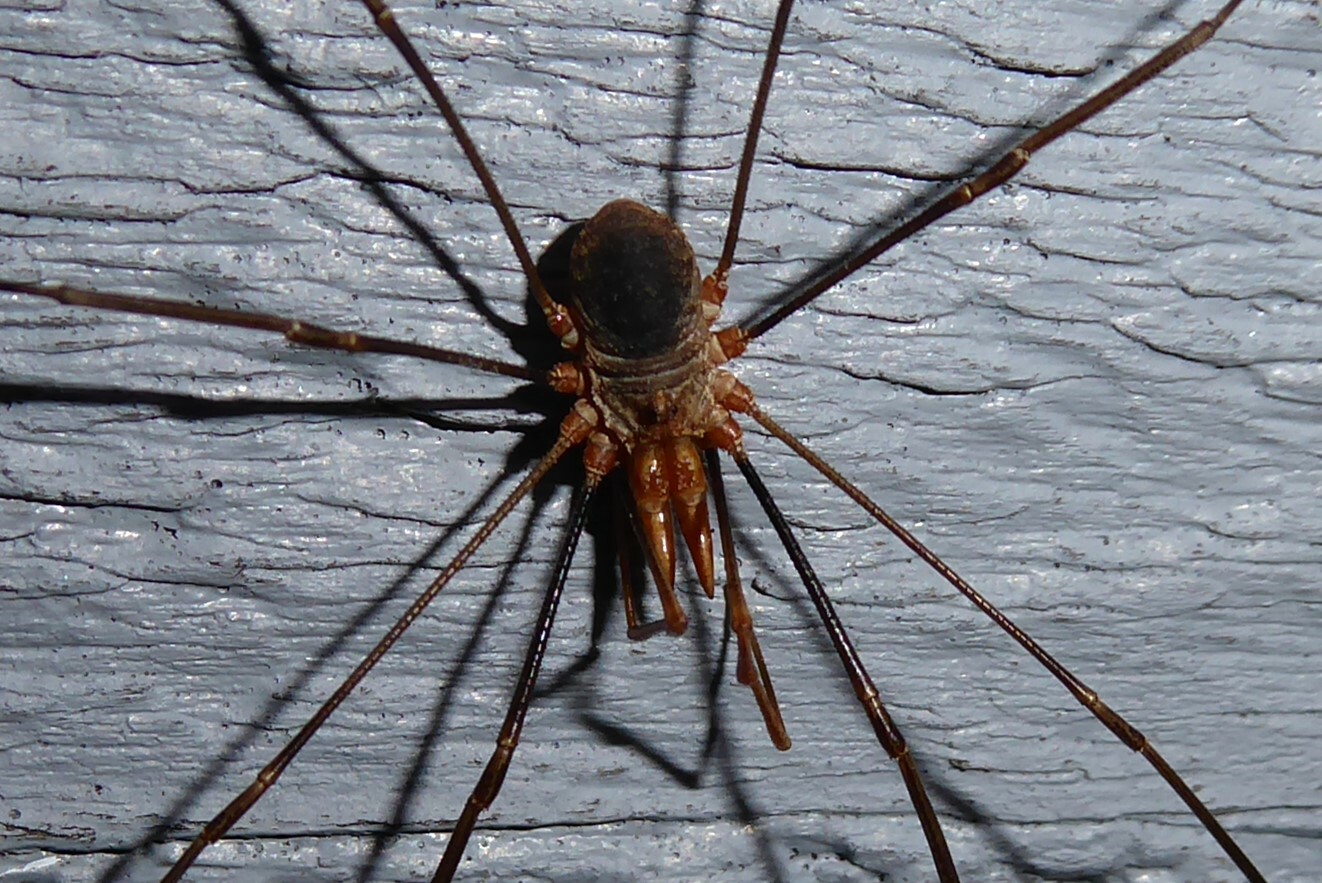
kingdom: Animalia
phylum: Arthropoda
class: Arachnida
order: Opiliones
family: Phalangiidae
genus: Phalangium
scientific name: Phalangium opilio
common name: Daddy longleg
